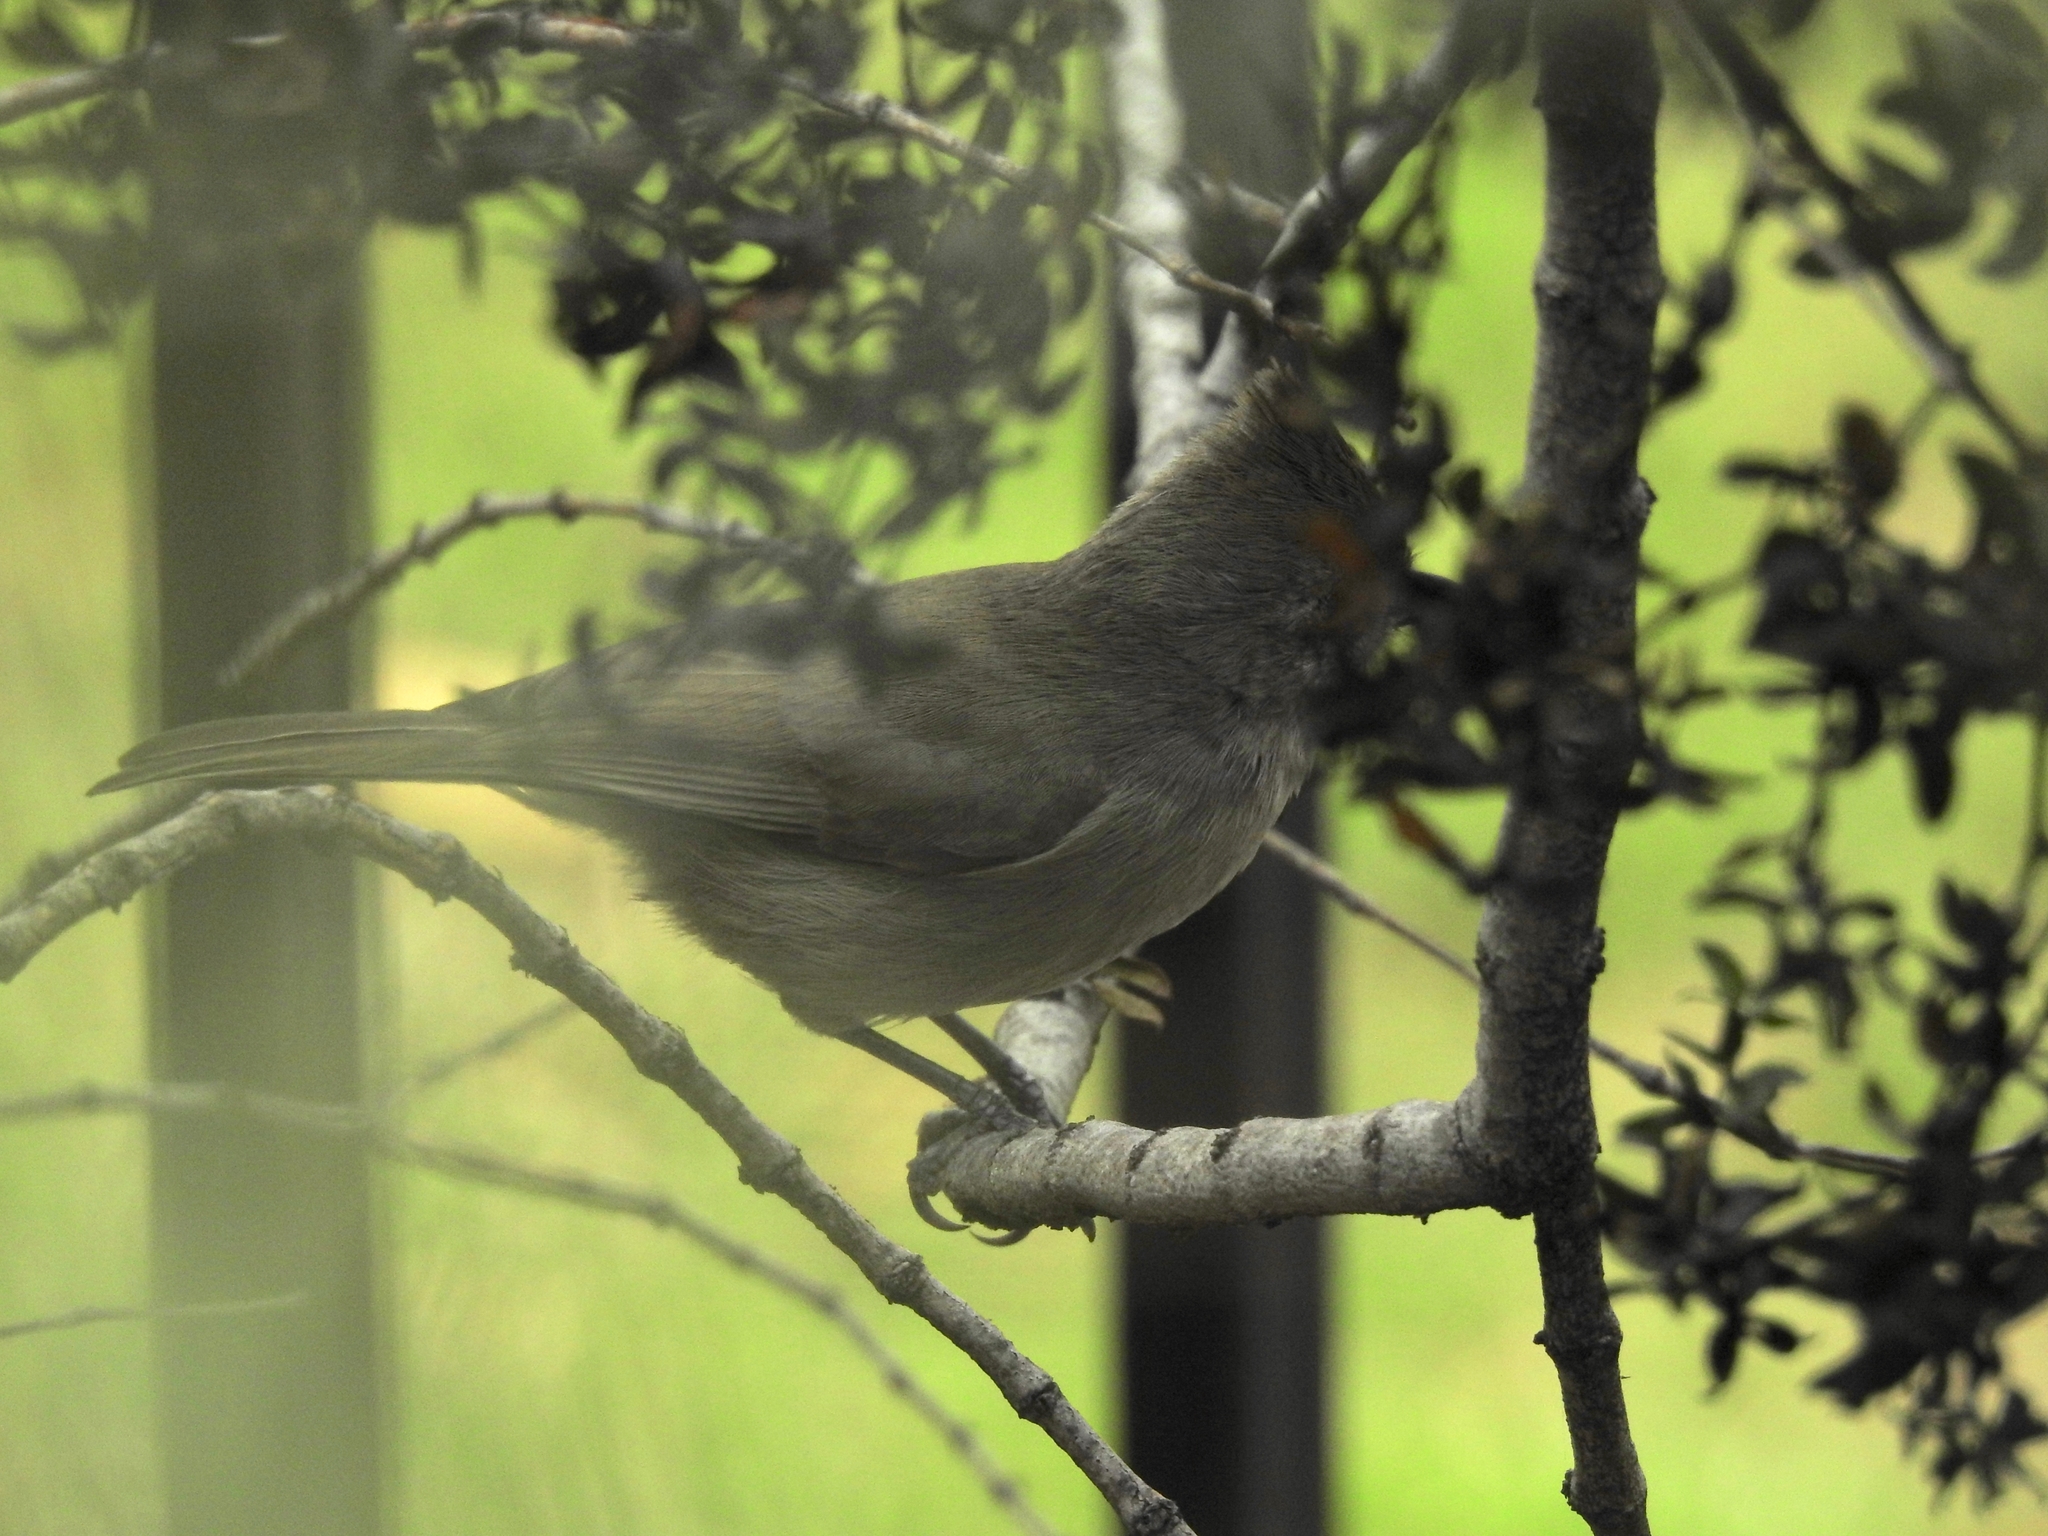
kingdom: Animalia
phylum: Chordata
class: Aves
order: Passeriformes
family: Paridae
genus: Baeolophus
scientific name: Baeolophus inornatus
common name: Oak titmouse
